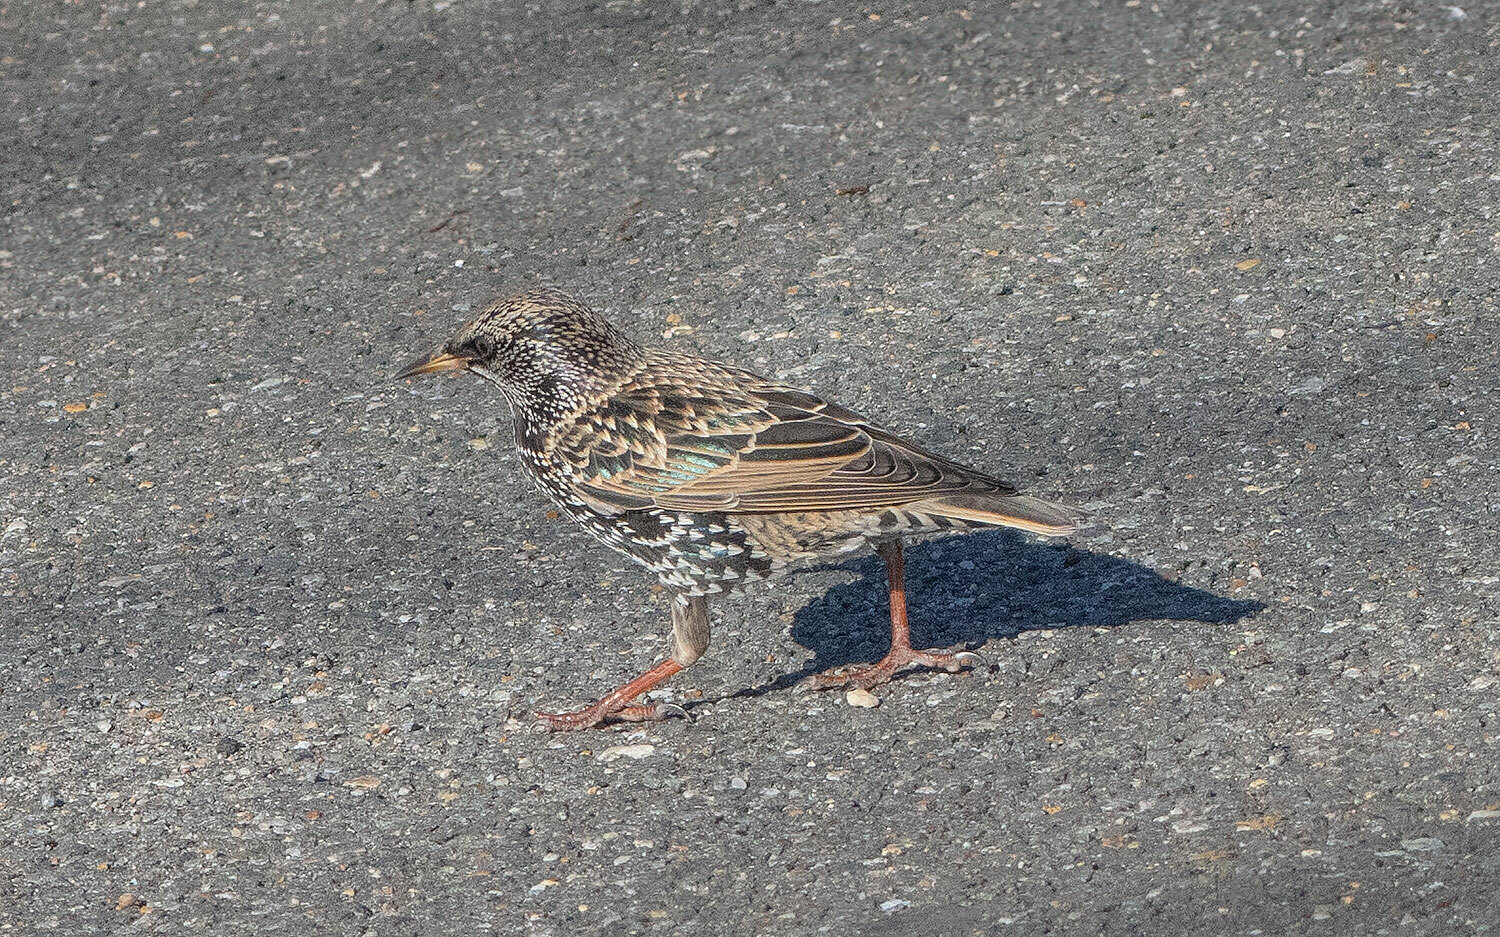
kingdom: Animalia
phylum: Chordata
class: Aves
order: Passeriformes
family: Sturnidae
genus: Sturnus
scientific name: Sturnus vulgaris
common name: Common starling
